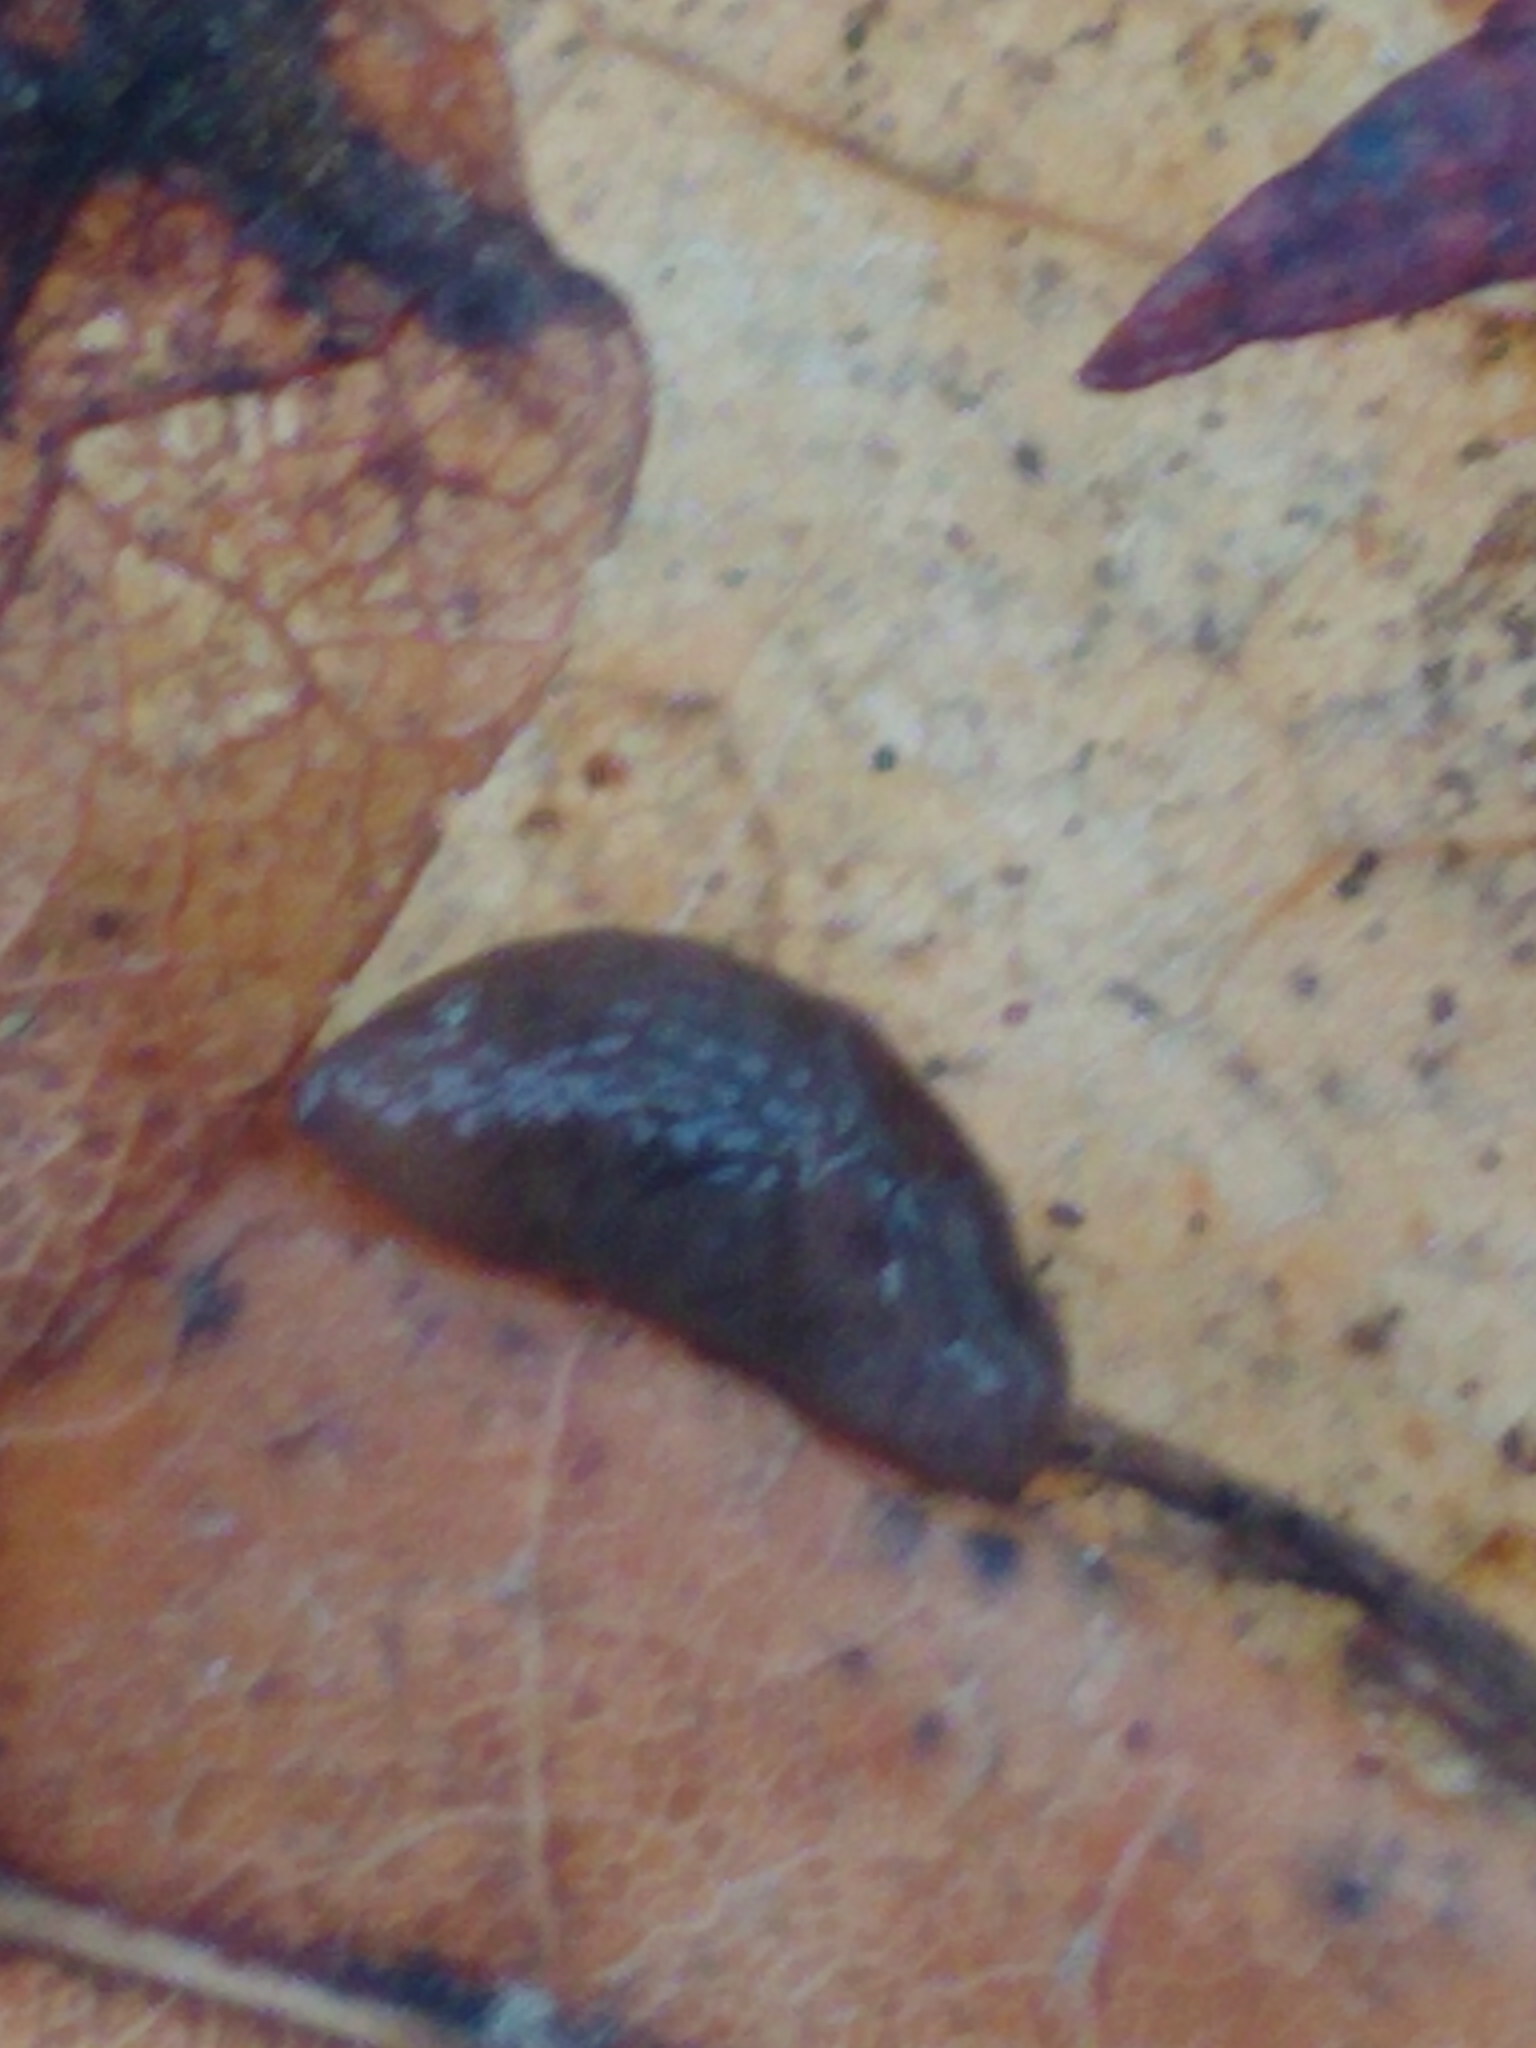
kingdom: Animalia
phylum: Mollusca
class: Gastropoda
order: Stylommatophora
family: Agriolimacidae
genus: Deroceras
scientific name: Deroceras reticulatum
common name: Gray field slug
